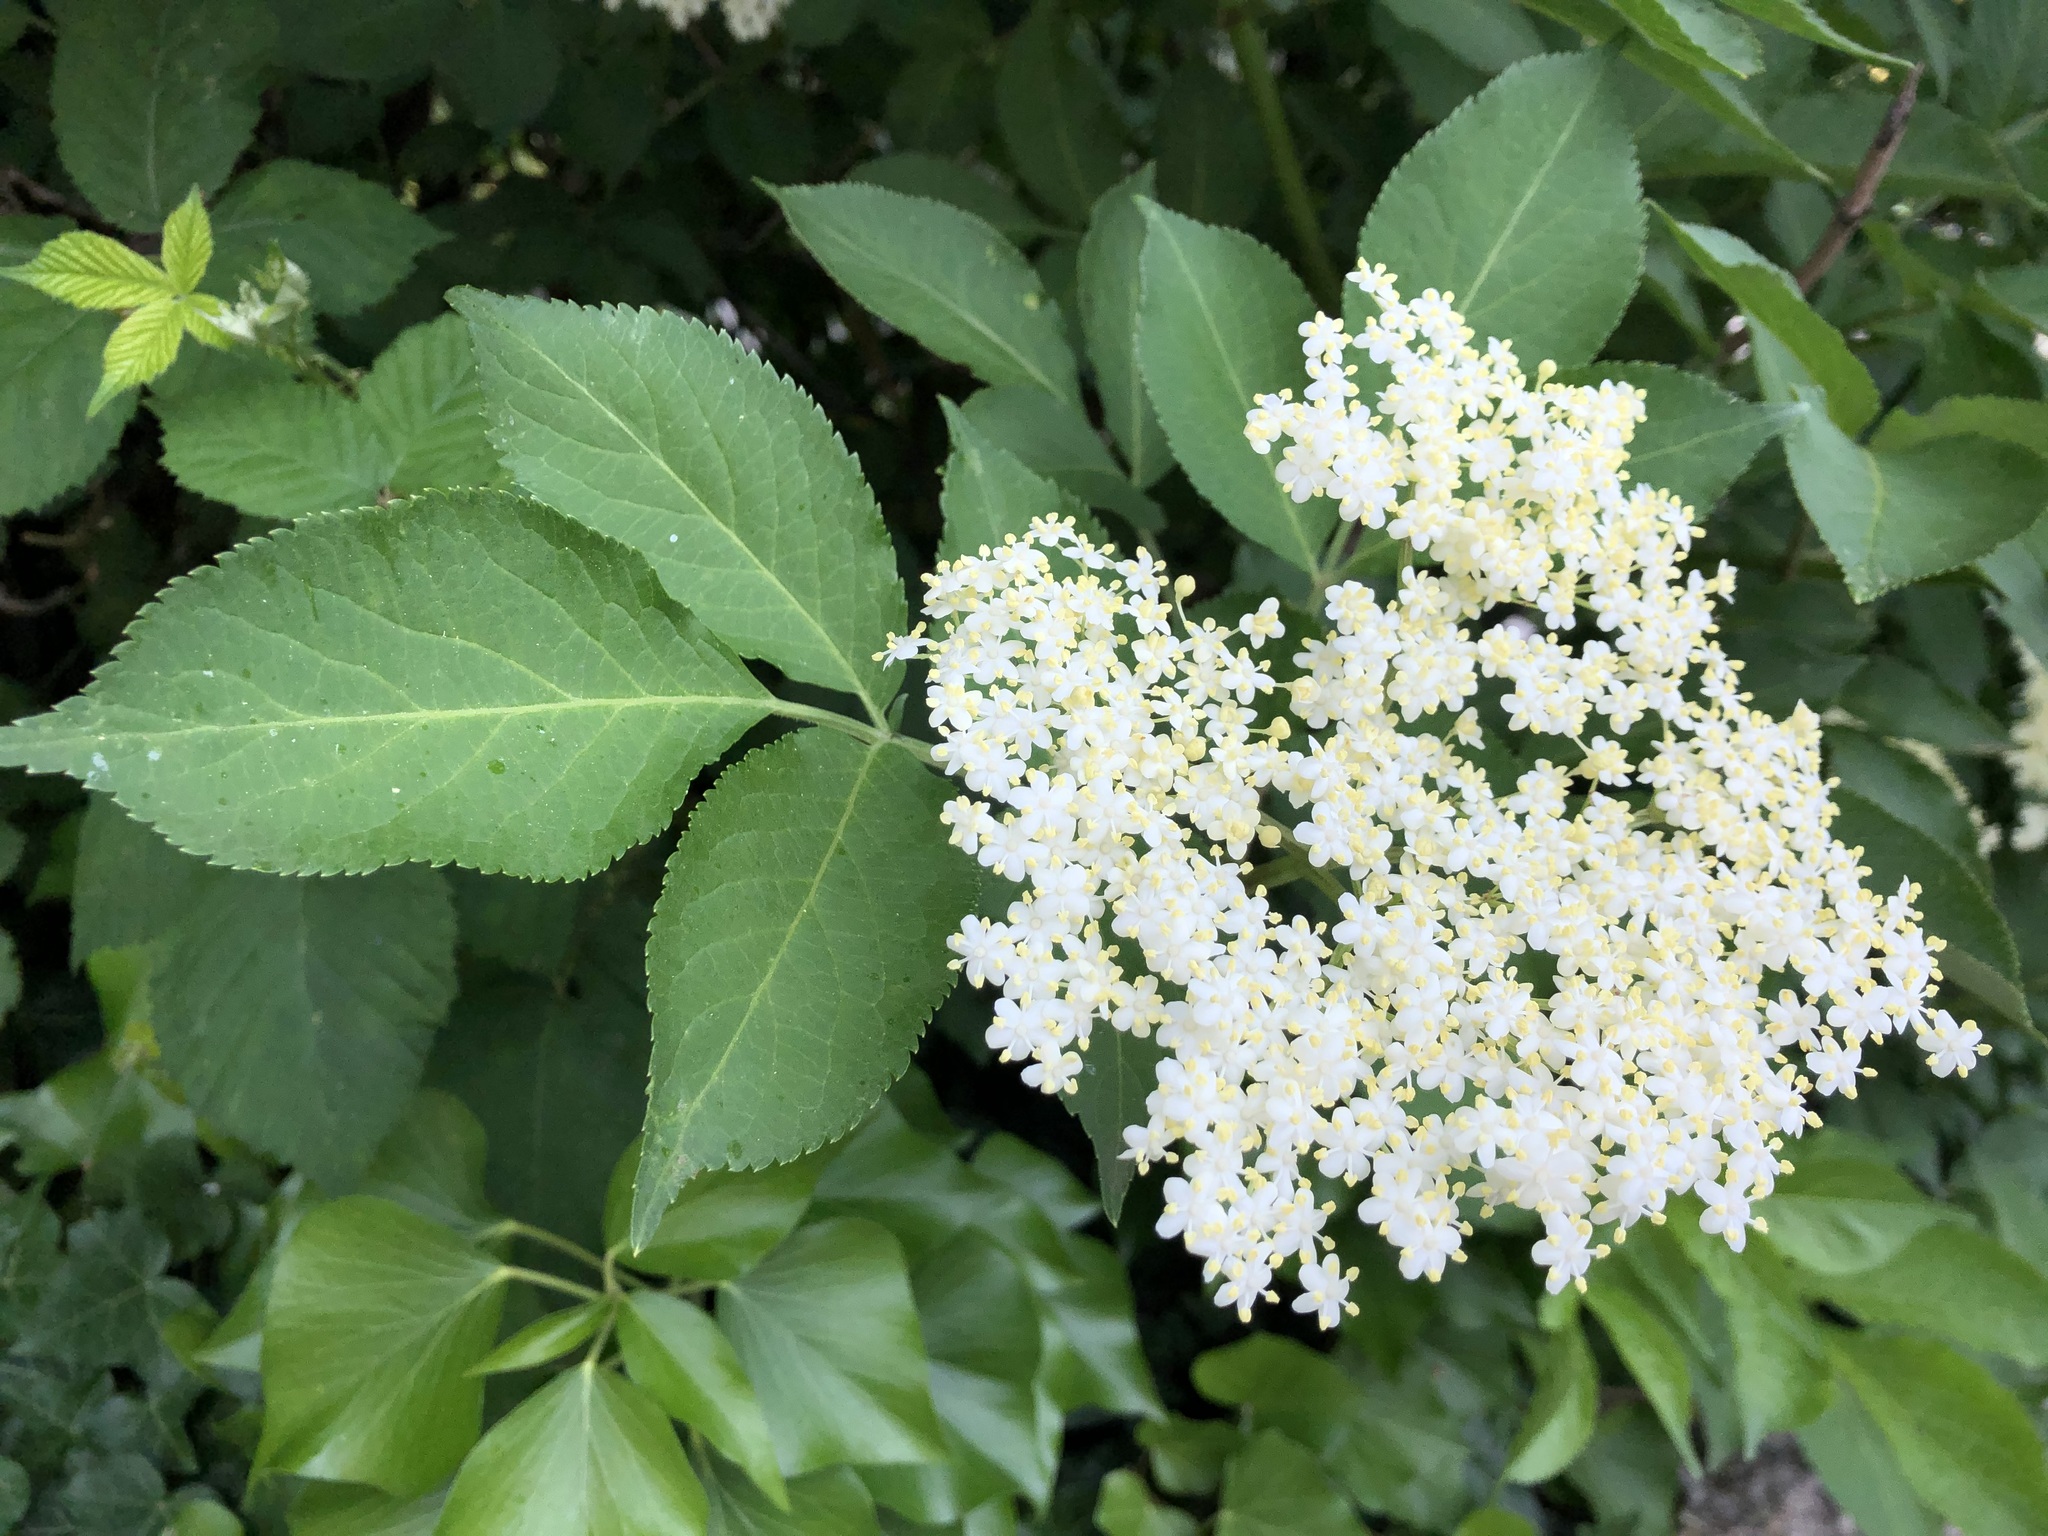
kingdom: Plantae
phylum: Tracheophyta
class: Magnoliopsida
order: Dipsacales
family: Viburnaceae
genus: Sambucus
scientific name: Sambucus nigra
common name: Elder
